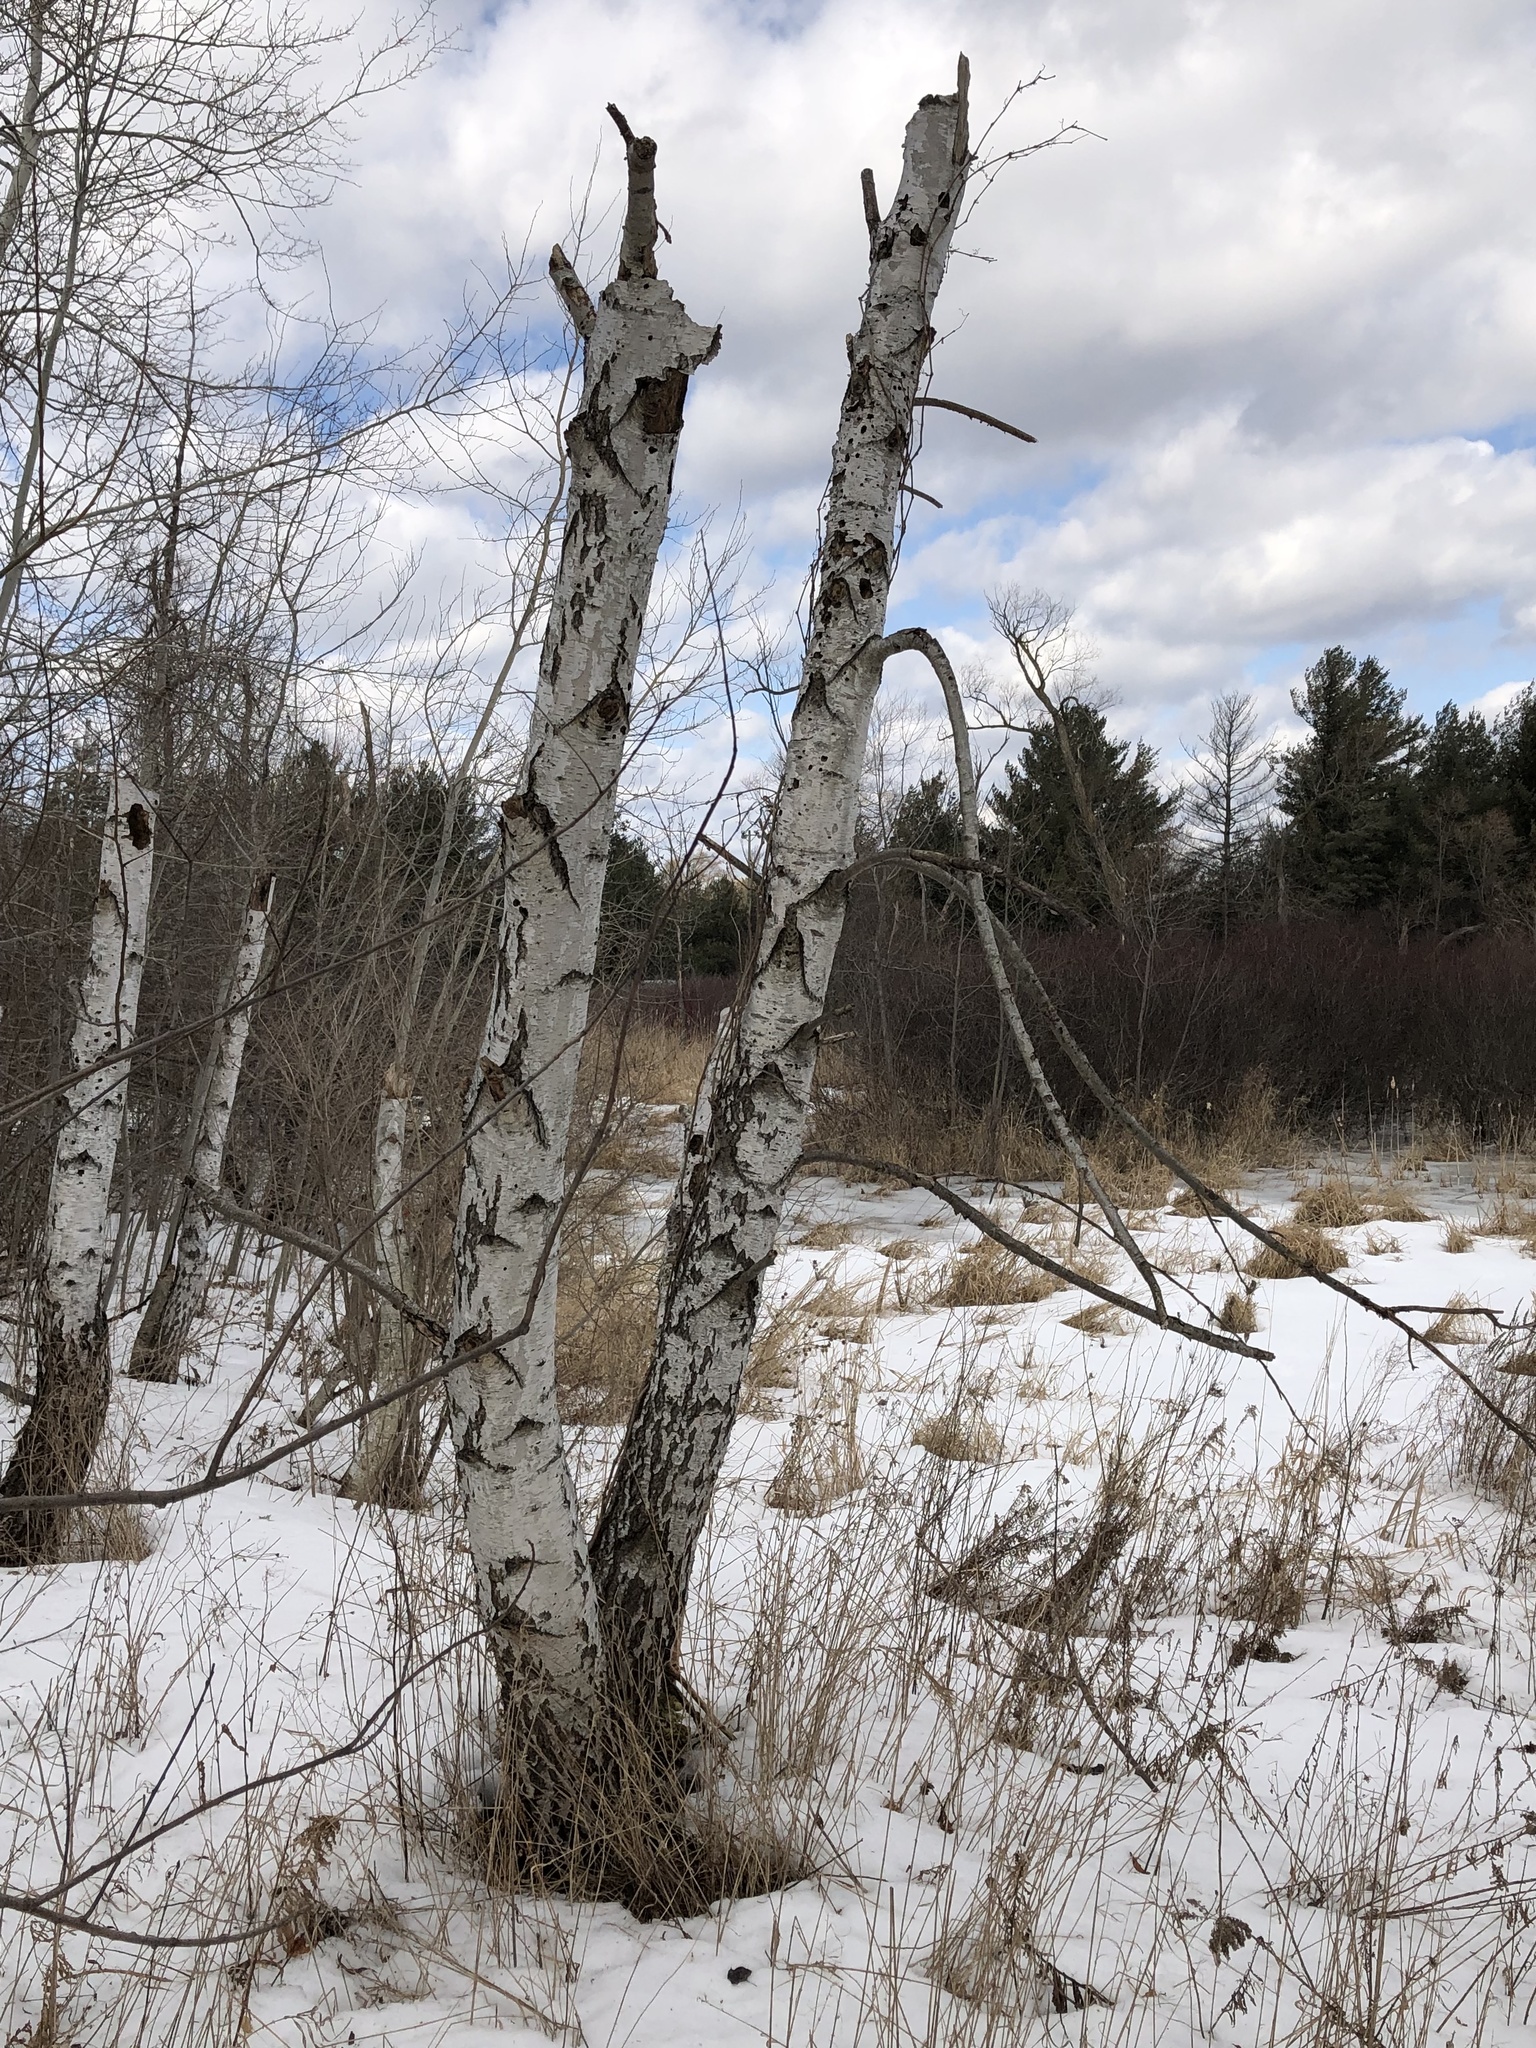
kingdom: Plantae
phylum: Tracheophyta
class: Magnoliopsida
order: Fagales
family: Betulaceae
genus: Betula
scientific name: Betula papyrifera
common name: Paper birch
